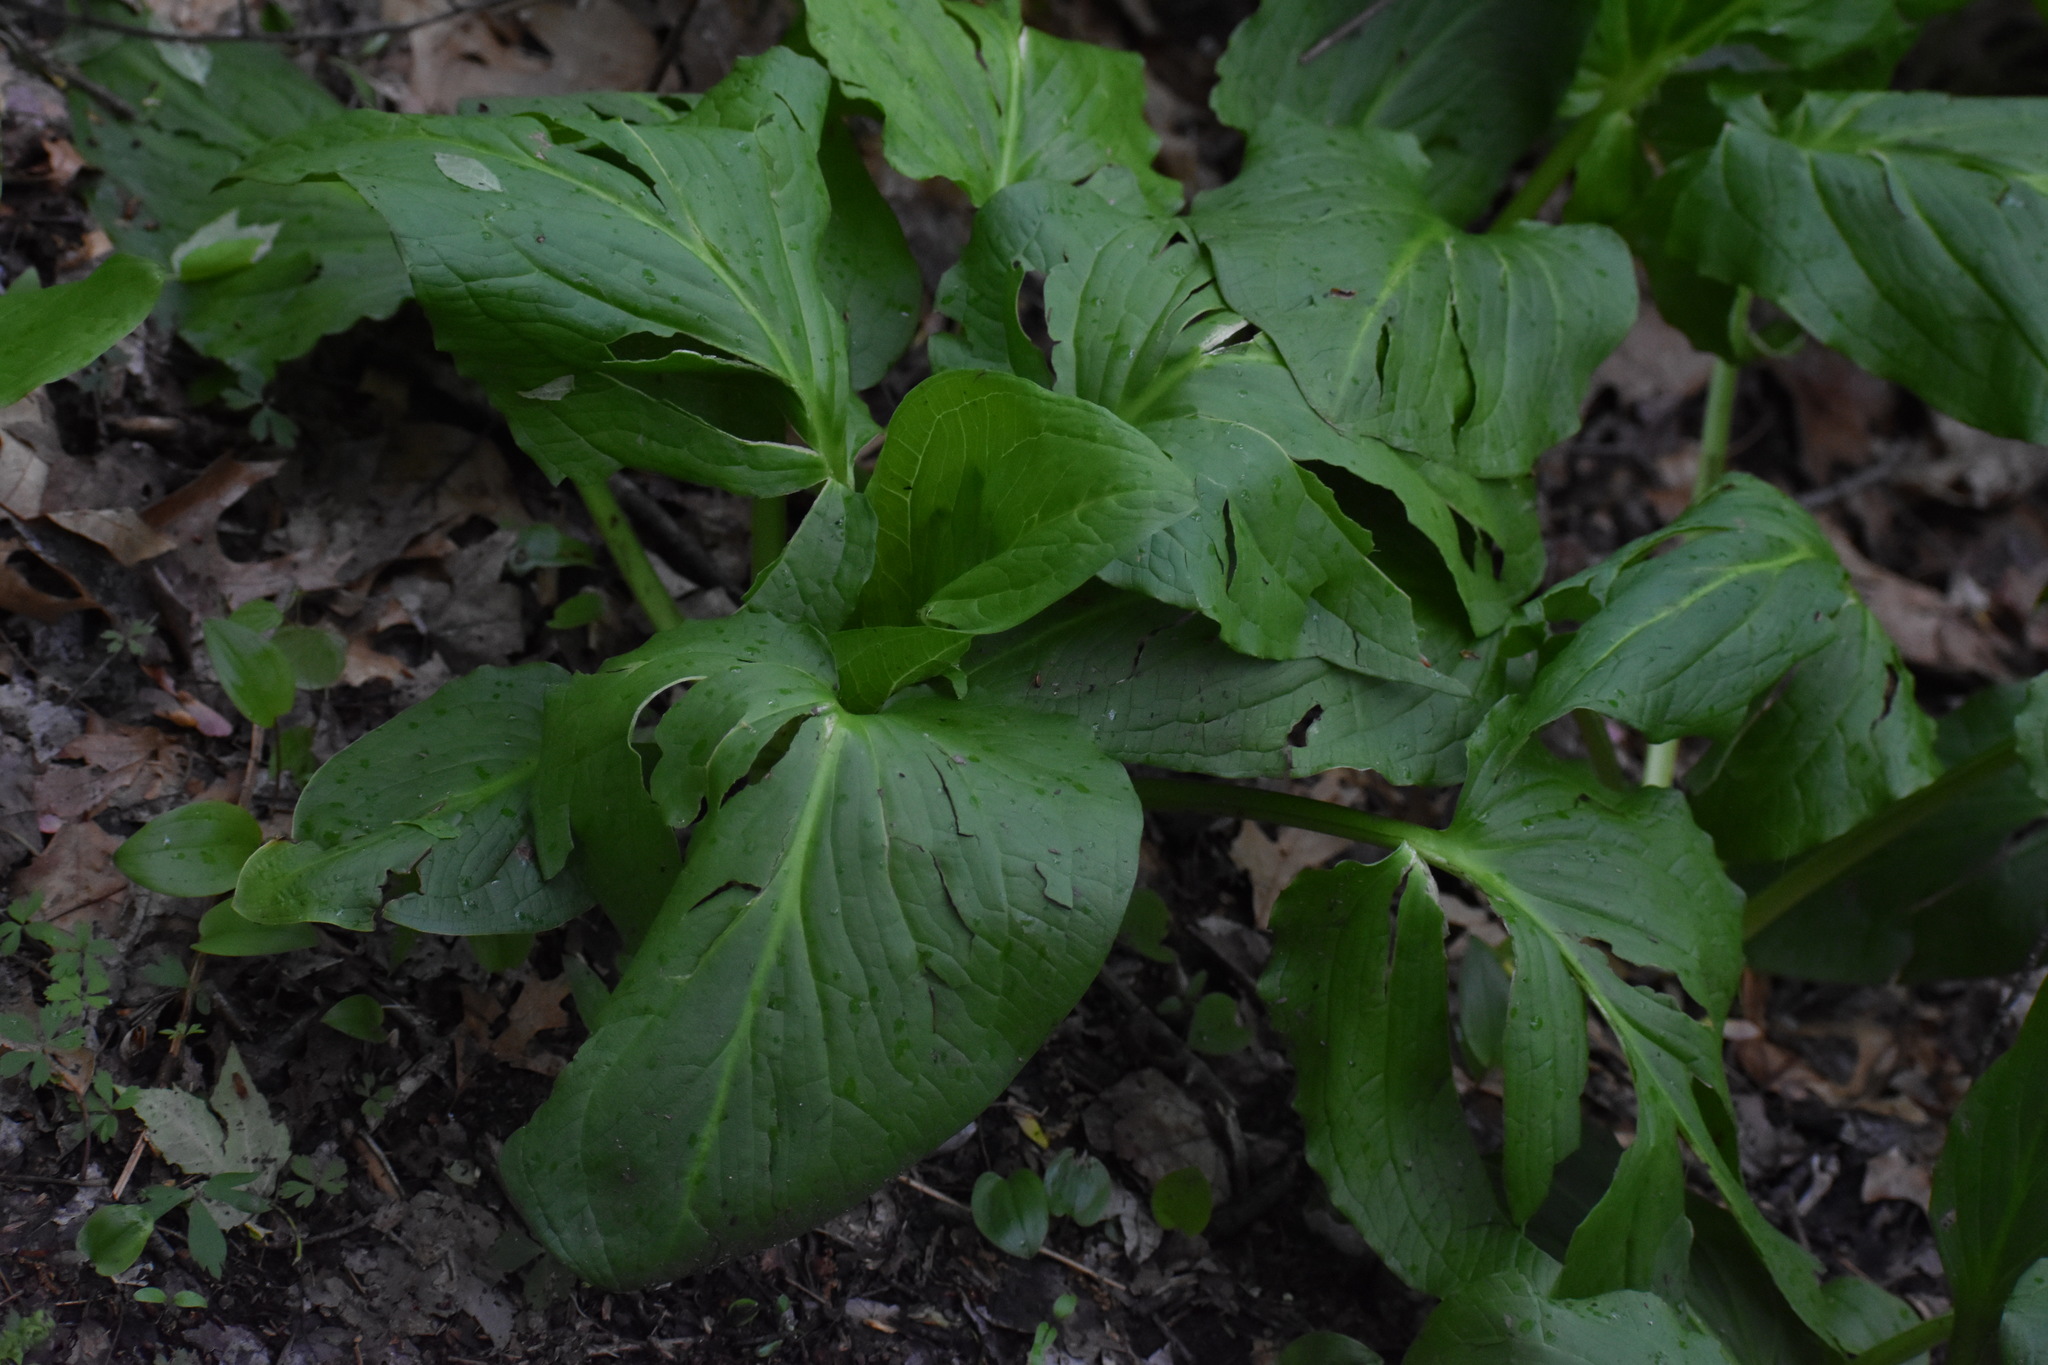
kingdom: Plantae
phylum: Tracheophyta
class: Liliopsida
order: Alismatales
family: Araceae
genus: Symplocarpus
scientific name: Symplocarpus foetidus
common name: Eastern skunk cabbage
